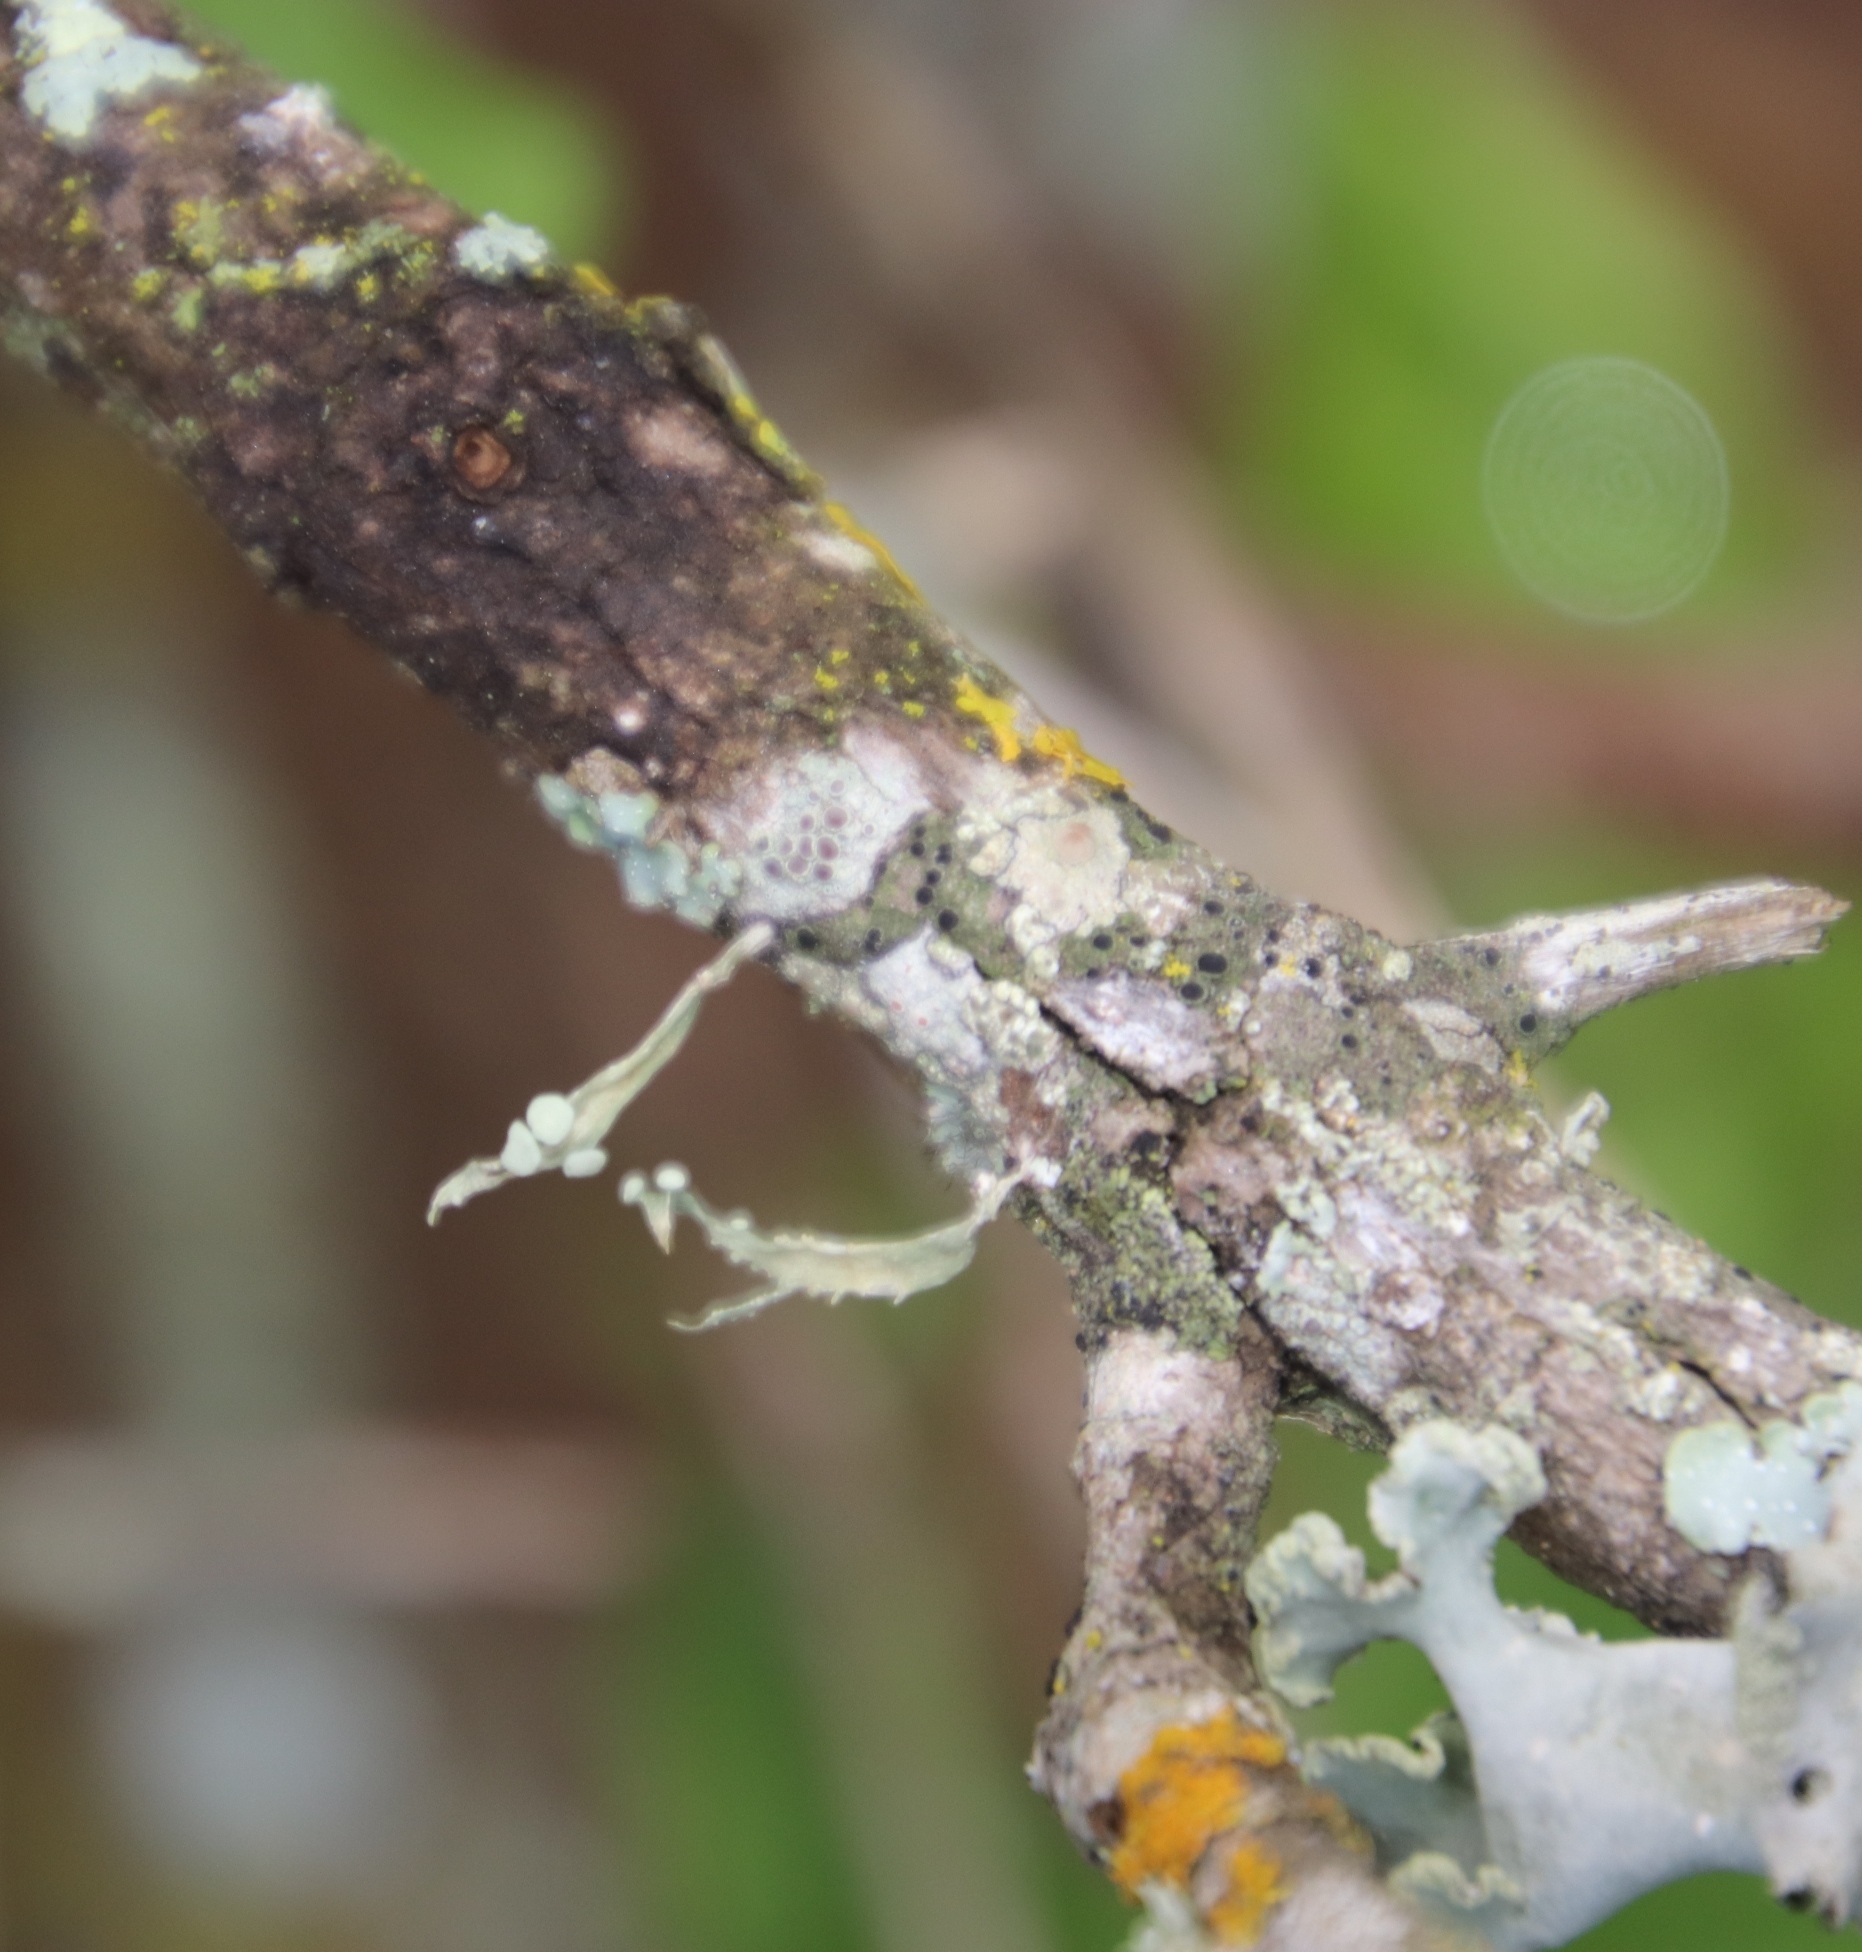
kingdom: Fungi
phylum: Ascomycota
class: Lecanoromycetes
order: Lecanorales
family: Ramalinaceae
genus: Ramalina
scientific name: Ramalina celastri
